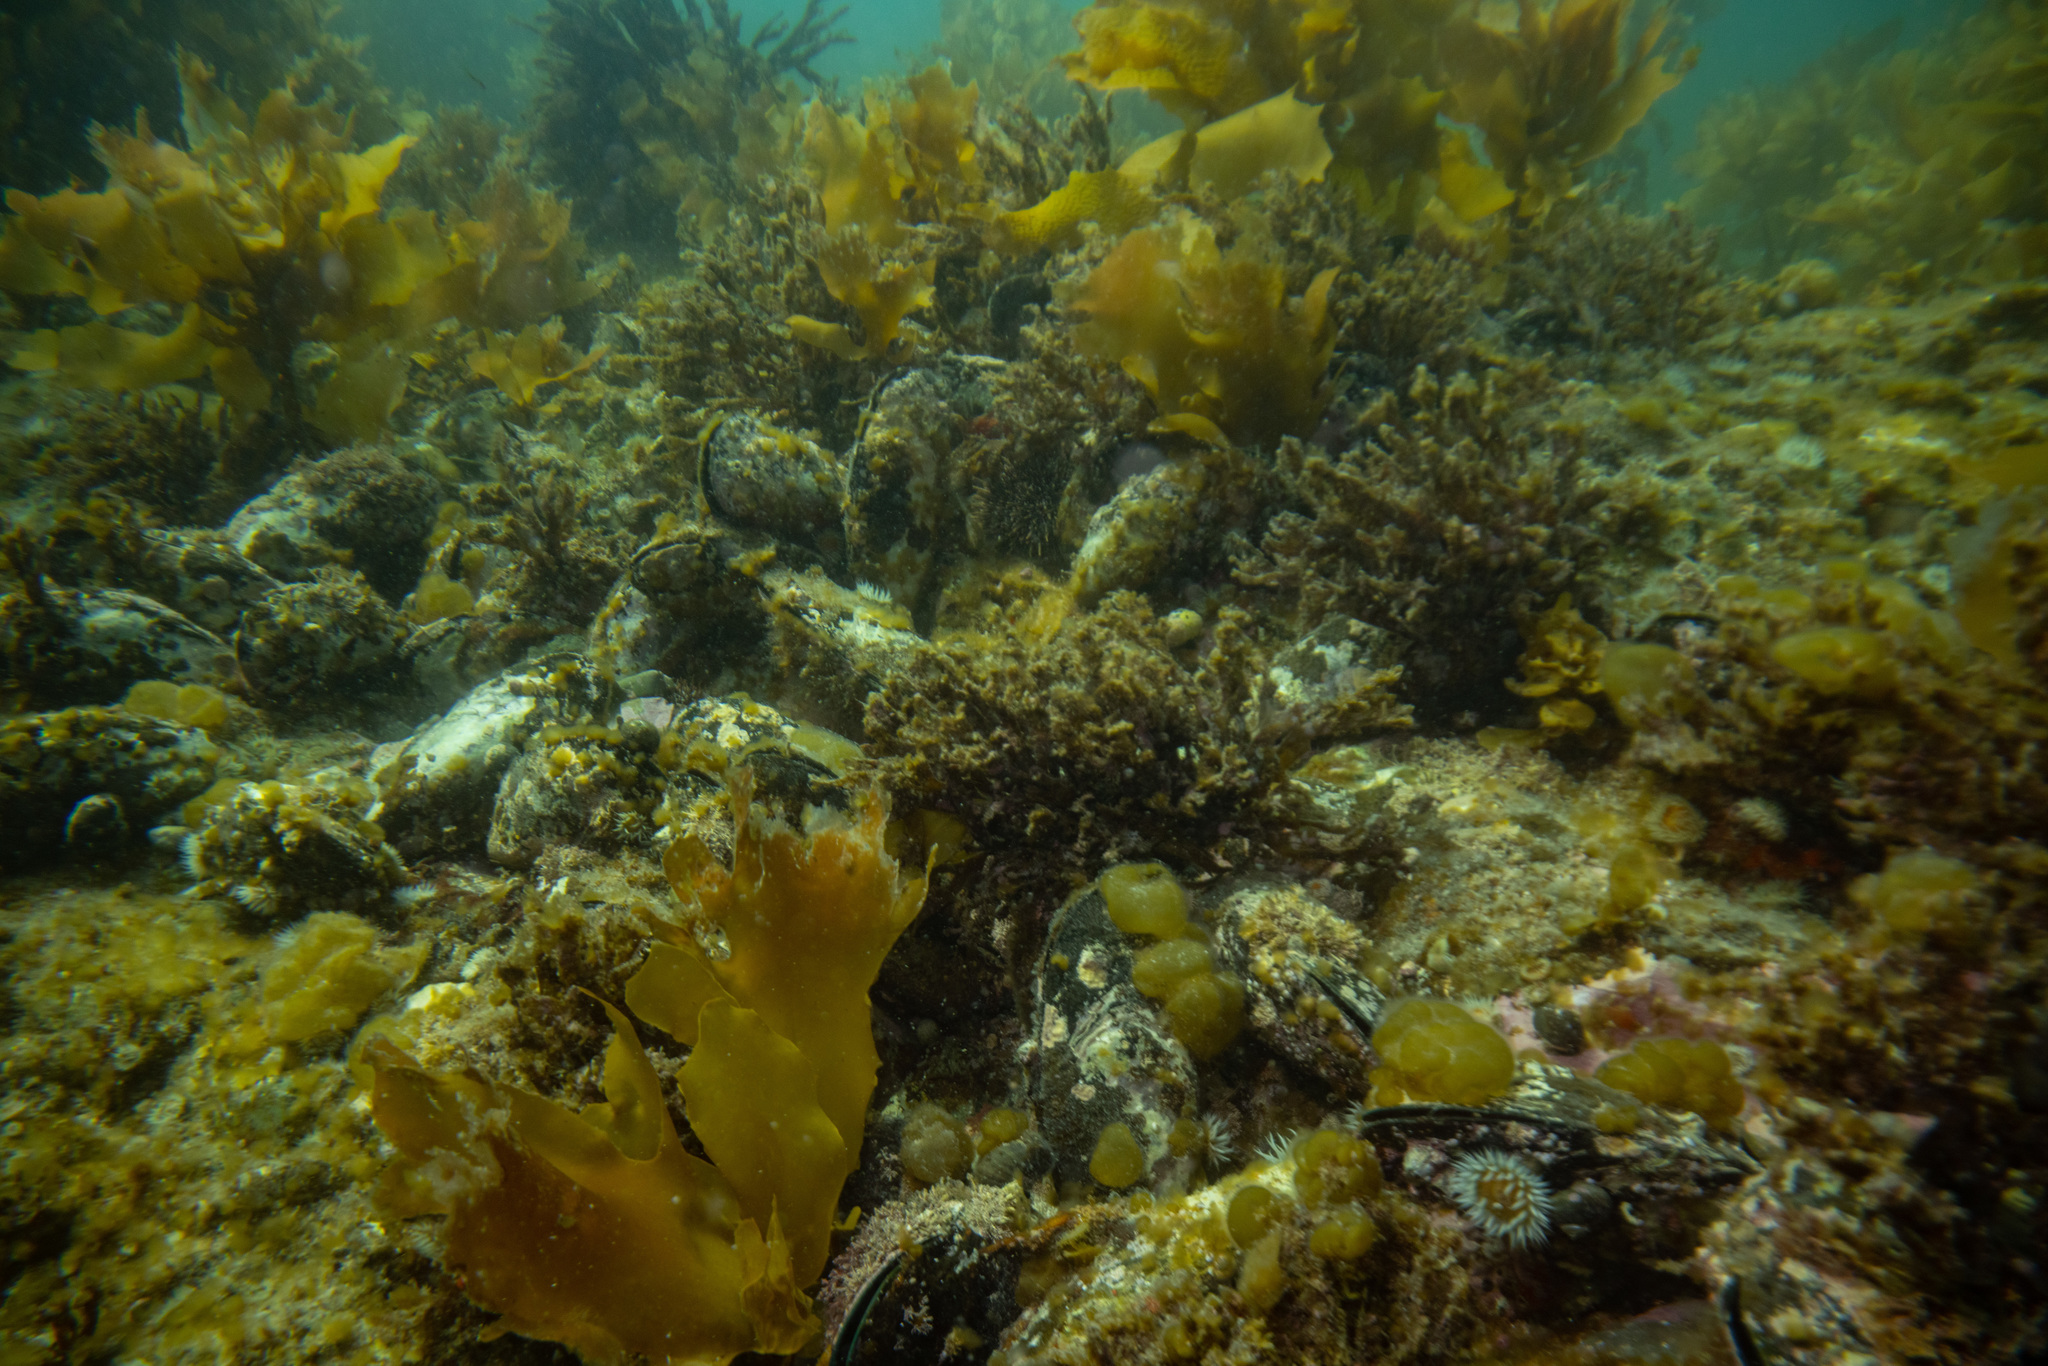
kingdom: Animalia
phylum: Mollusca
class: Bivalvia
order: Mytilida
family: Mytilidae
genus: Perna
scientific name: Perna canaliculus
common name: New zealand greenshelltm
